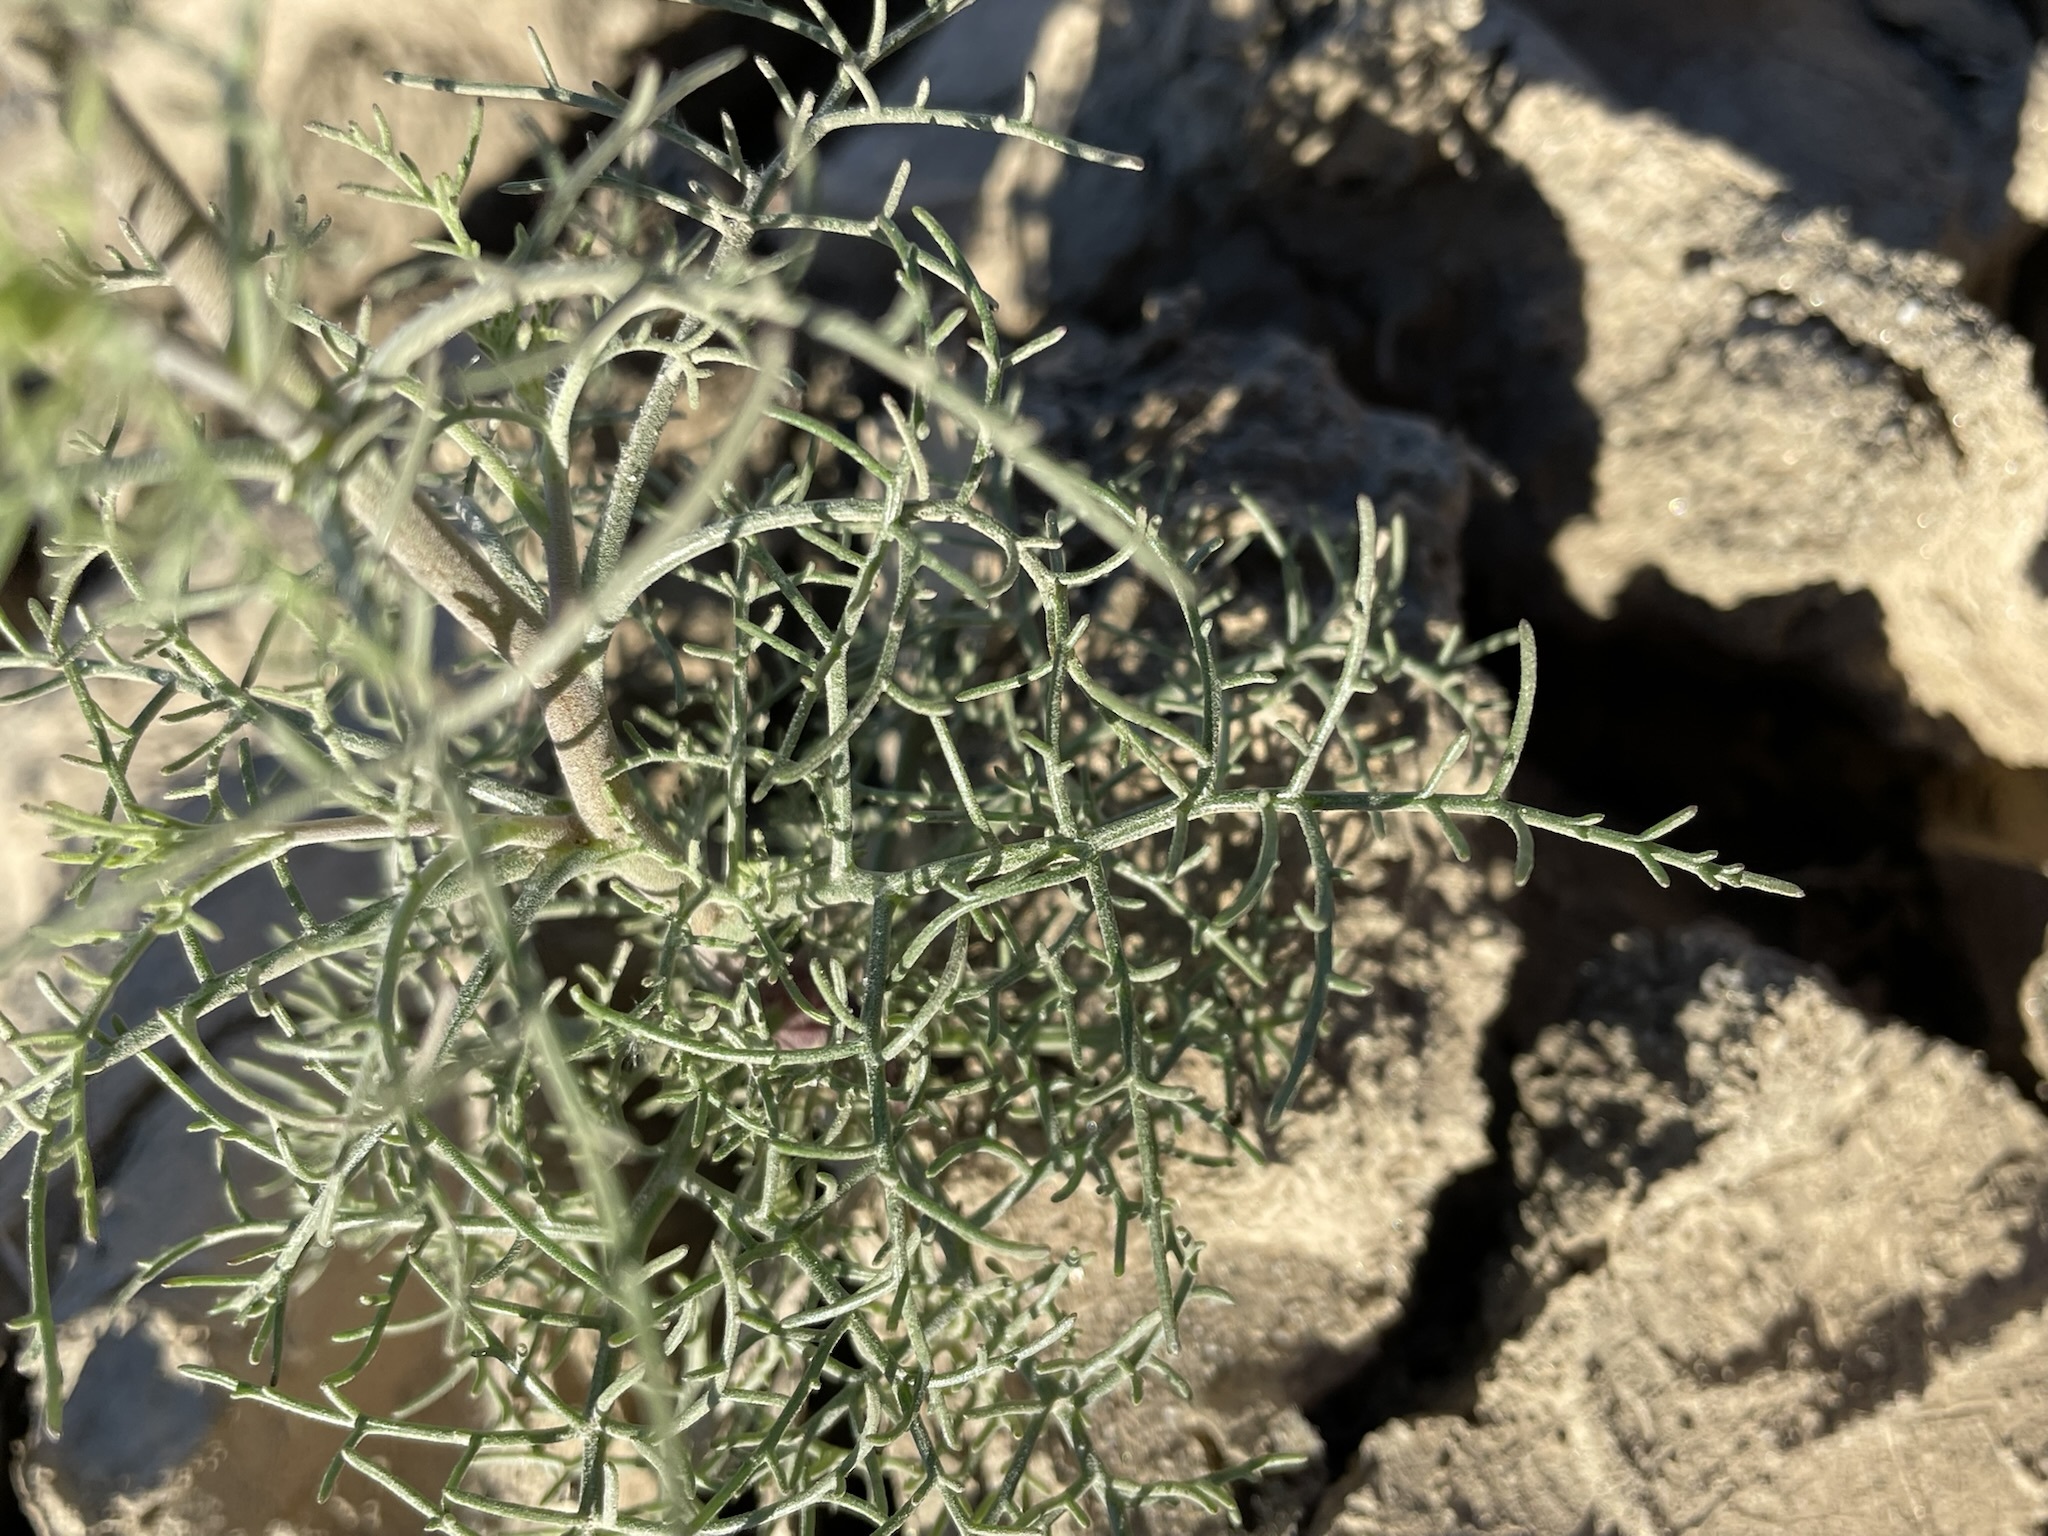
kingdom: Plantae
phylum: Tracheophyta
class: Magnoliopsida
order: Asterales
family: Asteraceae
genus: Chaenactis
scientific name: Chaenactis carphoclinia
